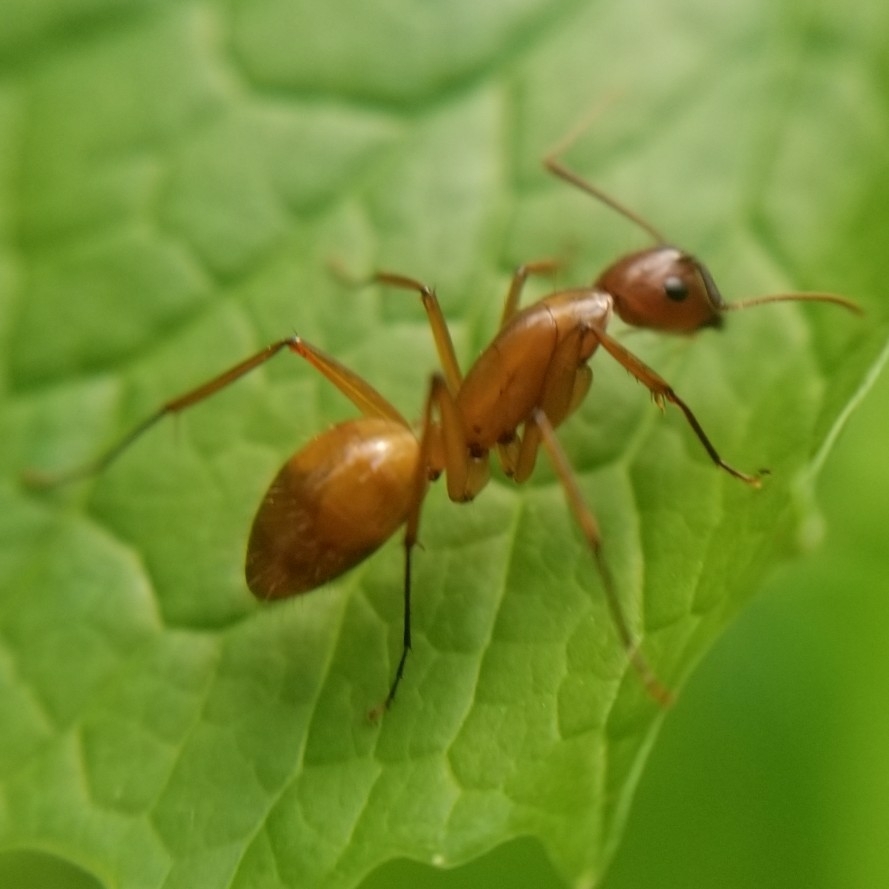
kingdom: Animalia
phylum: Arthropoda
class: Insecta
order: Hymenoptera
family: Formicidae
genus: Camponotus
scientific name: Camponotus castaneus
